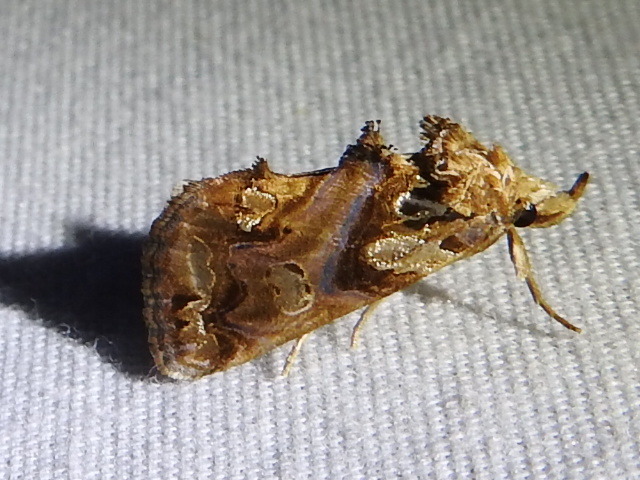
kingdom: Animalia
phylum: Arthropoda
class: Insecta
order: Lepidoptera
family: Erebidae
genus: Plusiodonta
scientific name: Plusiodonta compressipalpis
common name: Moonseed moth
